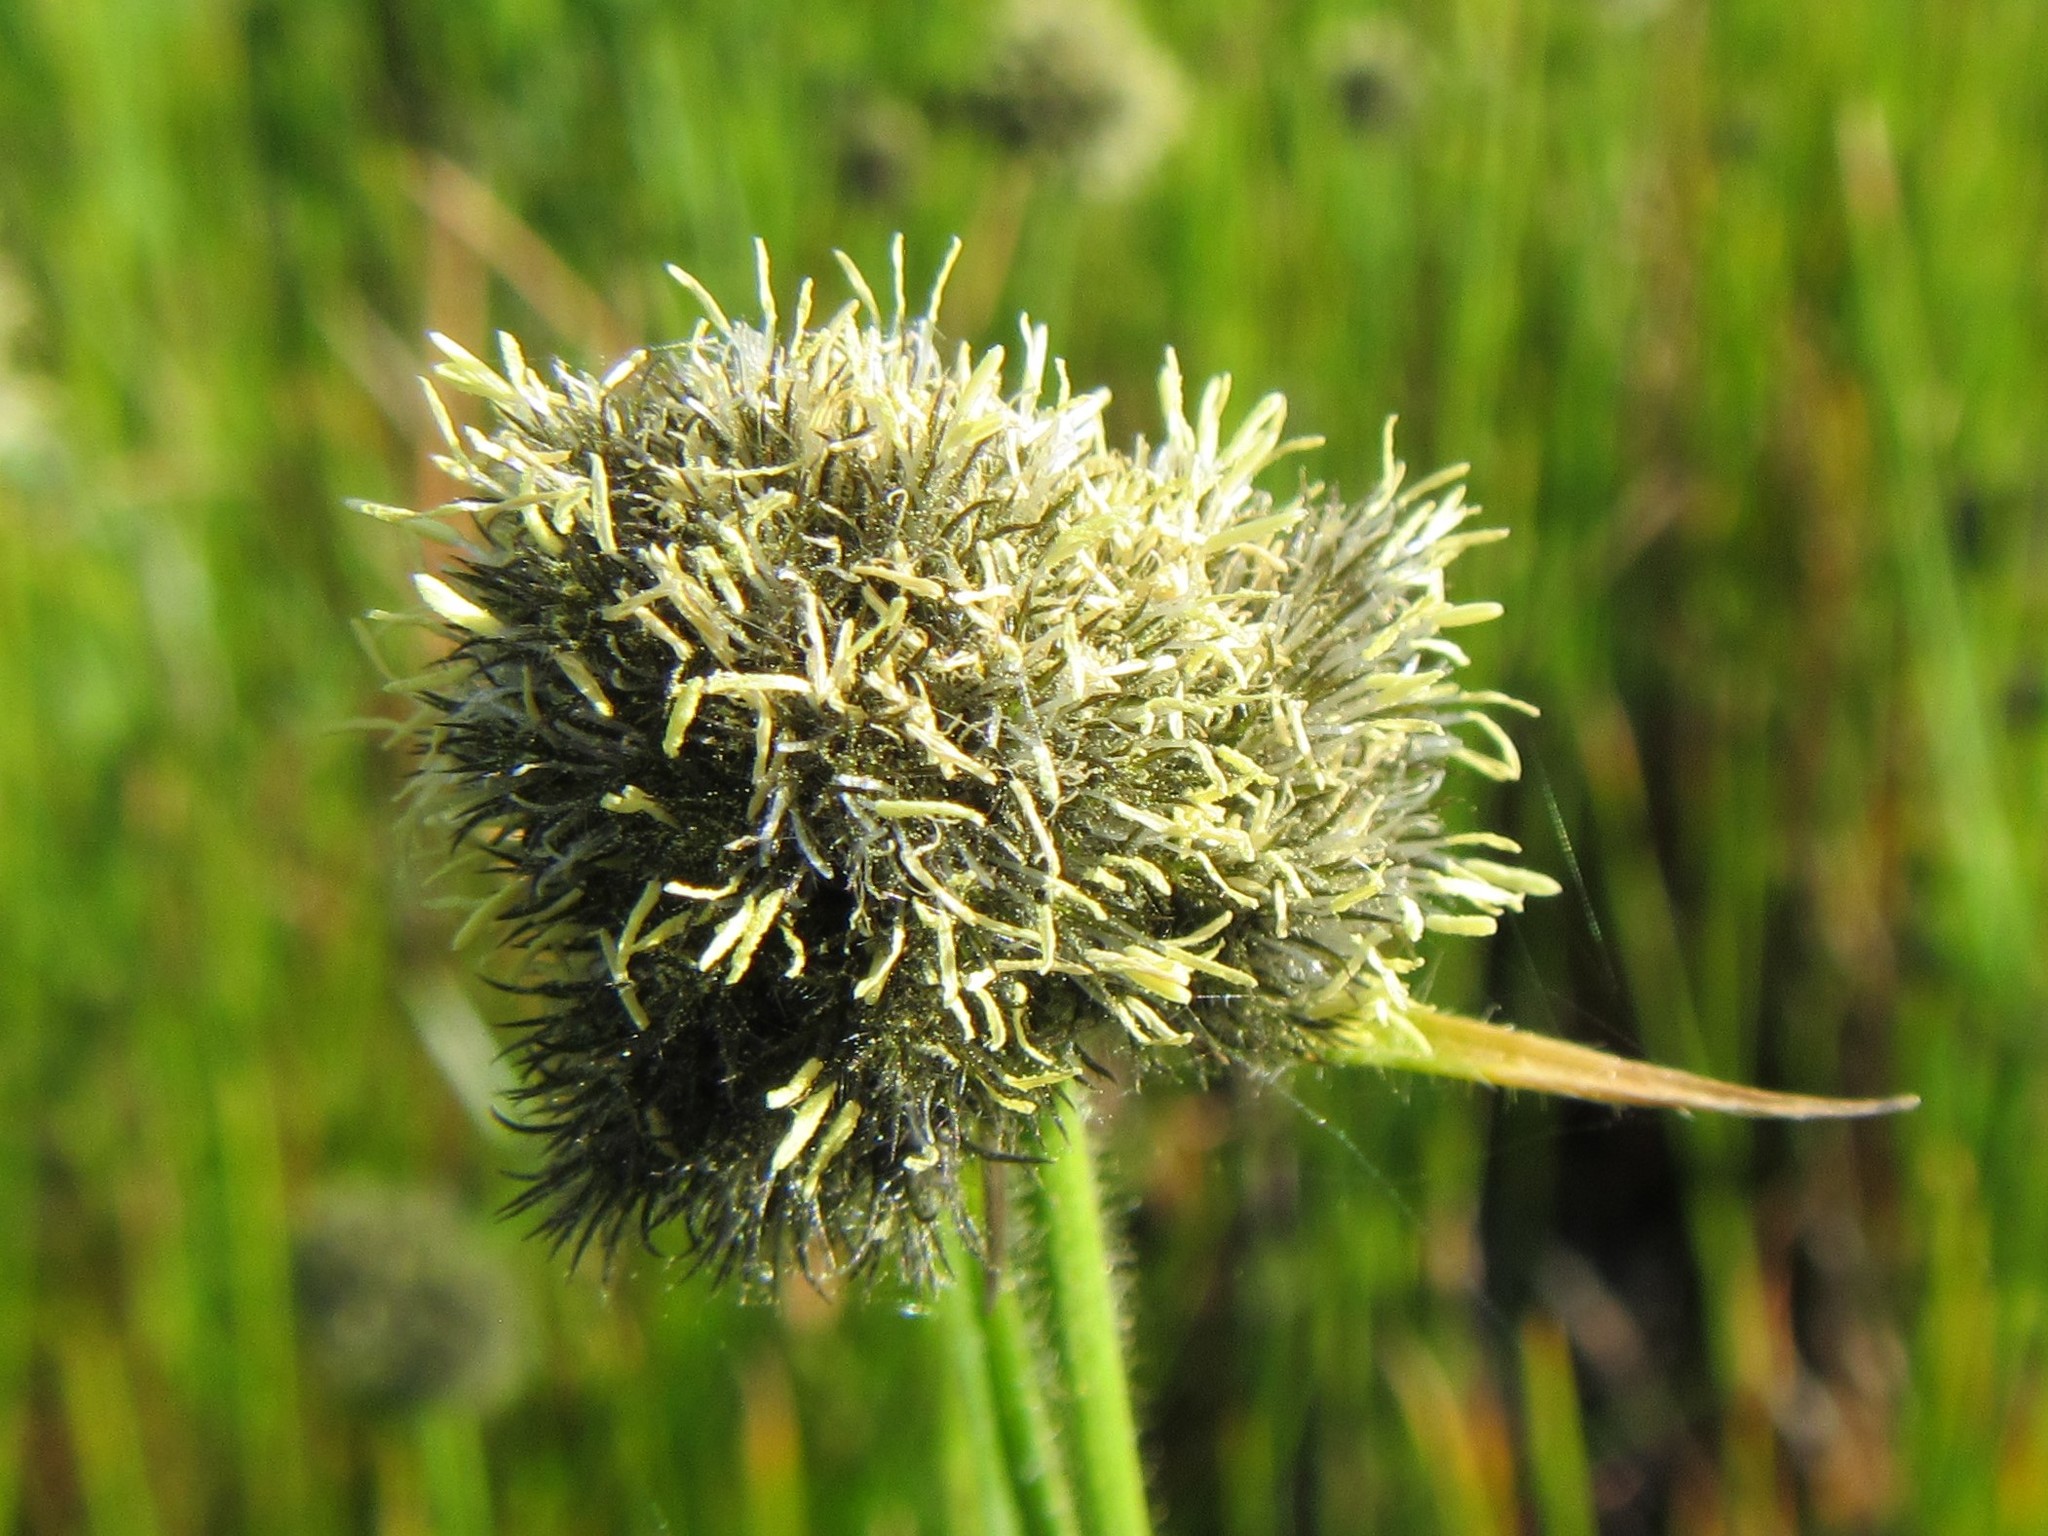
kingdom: Plantae
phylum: Tracheophyta
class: Liliopsida
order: Poales
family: Cyperaceae
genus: Fuirena
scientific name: Fuirena hirsuta
